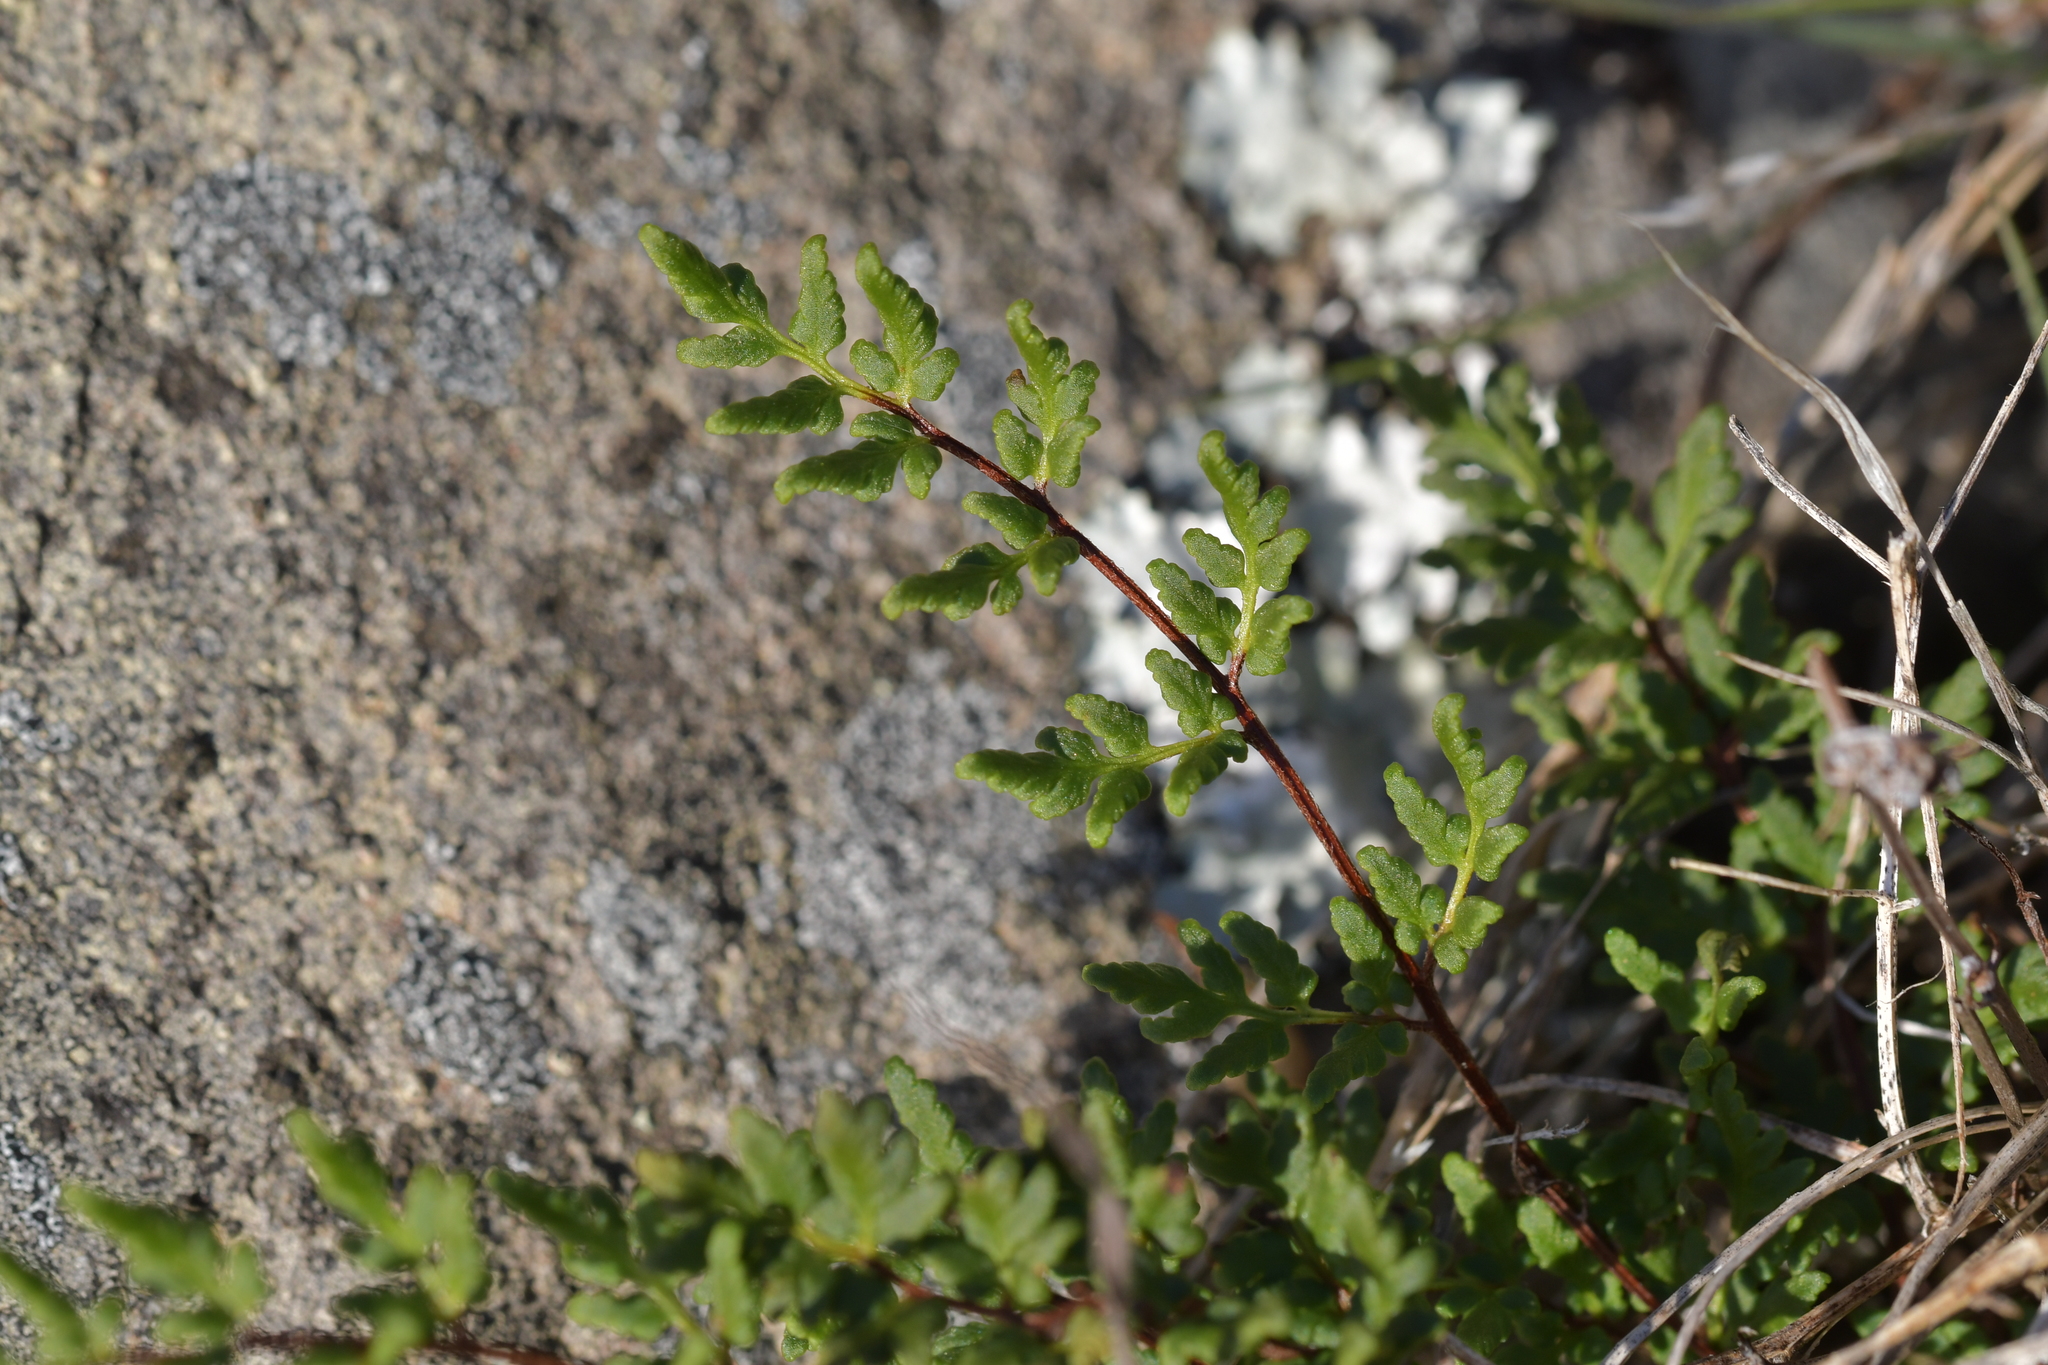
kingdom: Plantae
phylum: Tracheophyta
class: Polypodiopsida
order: Polypodiales
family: Pteridaceae
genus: Cheilanthes
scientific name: Cheilanthes sieberi
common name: Mulga fern
